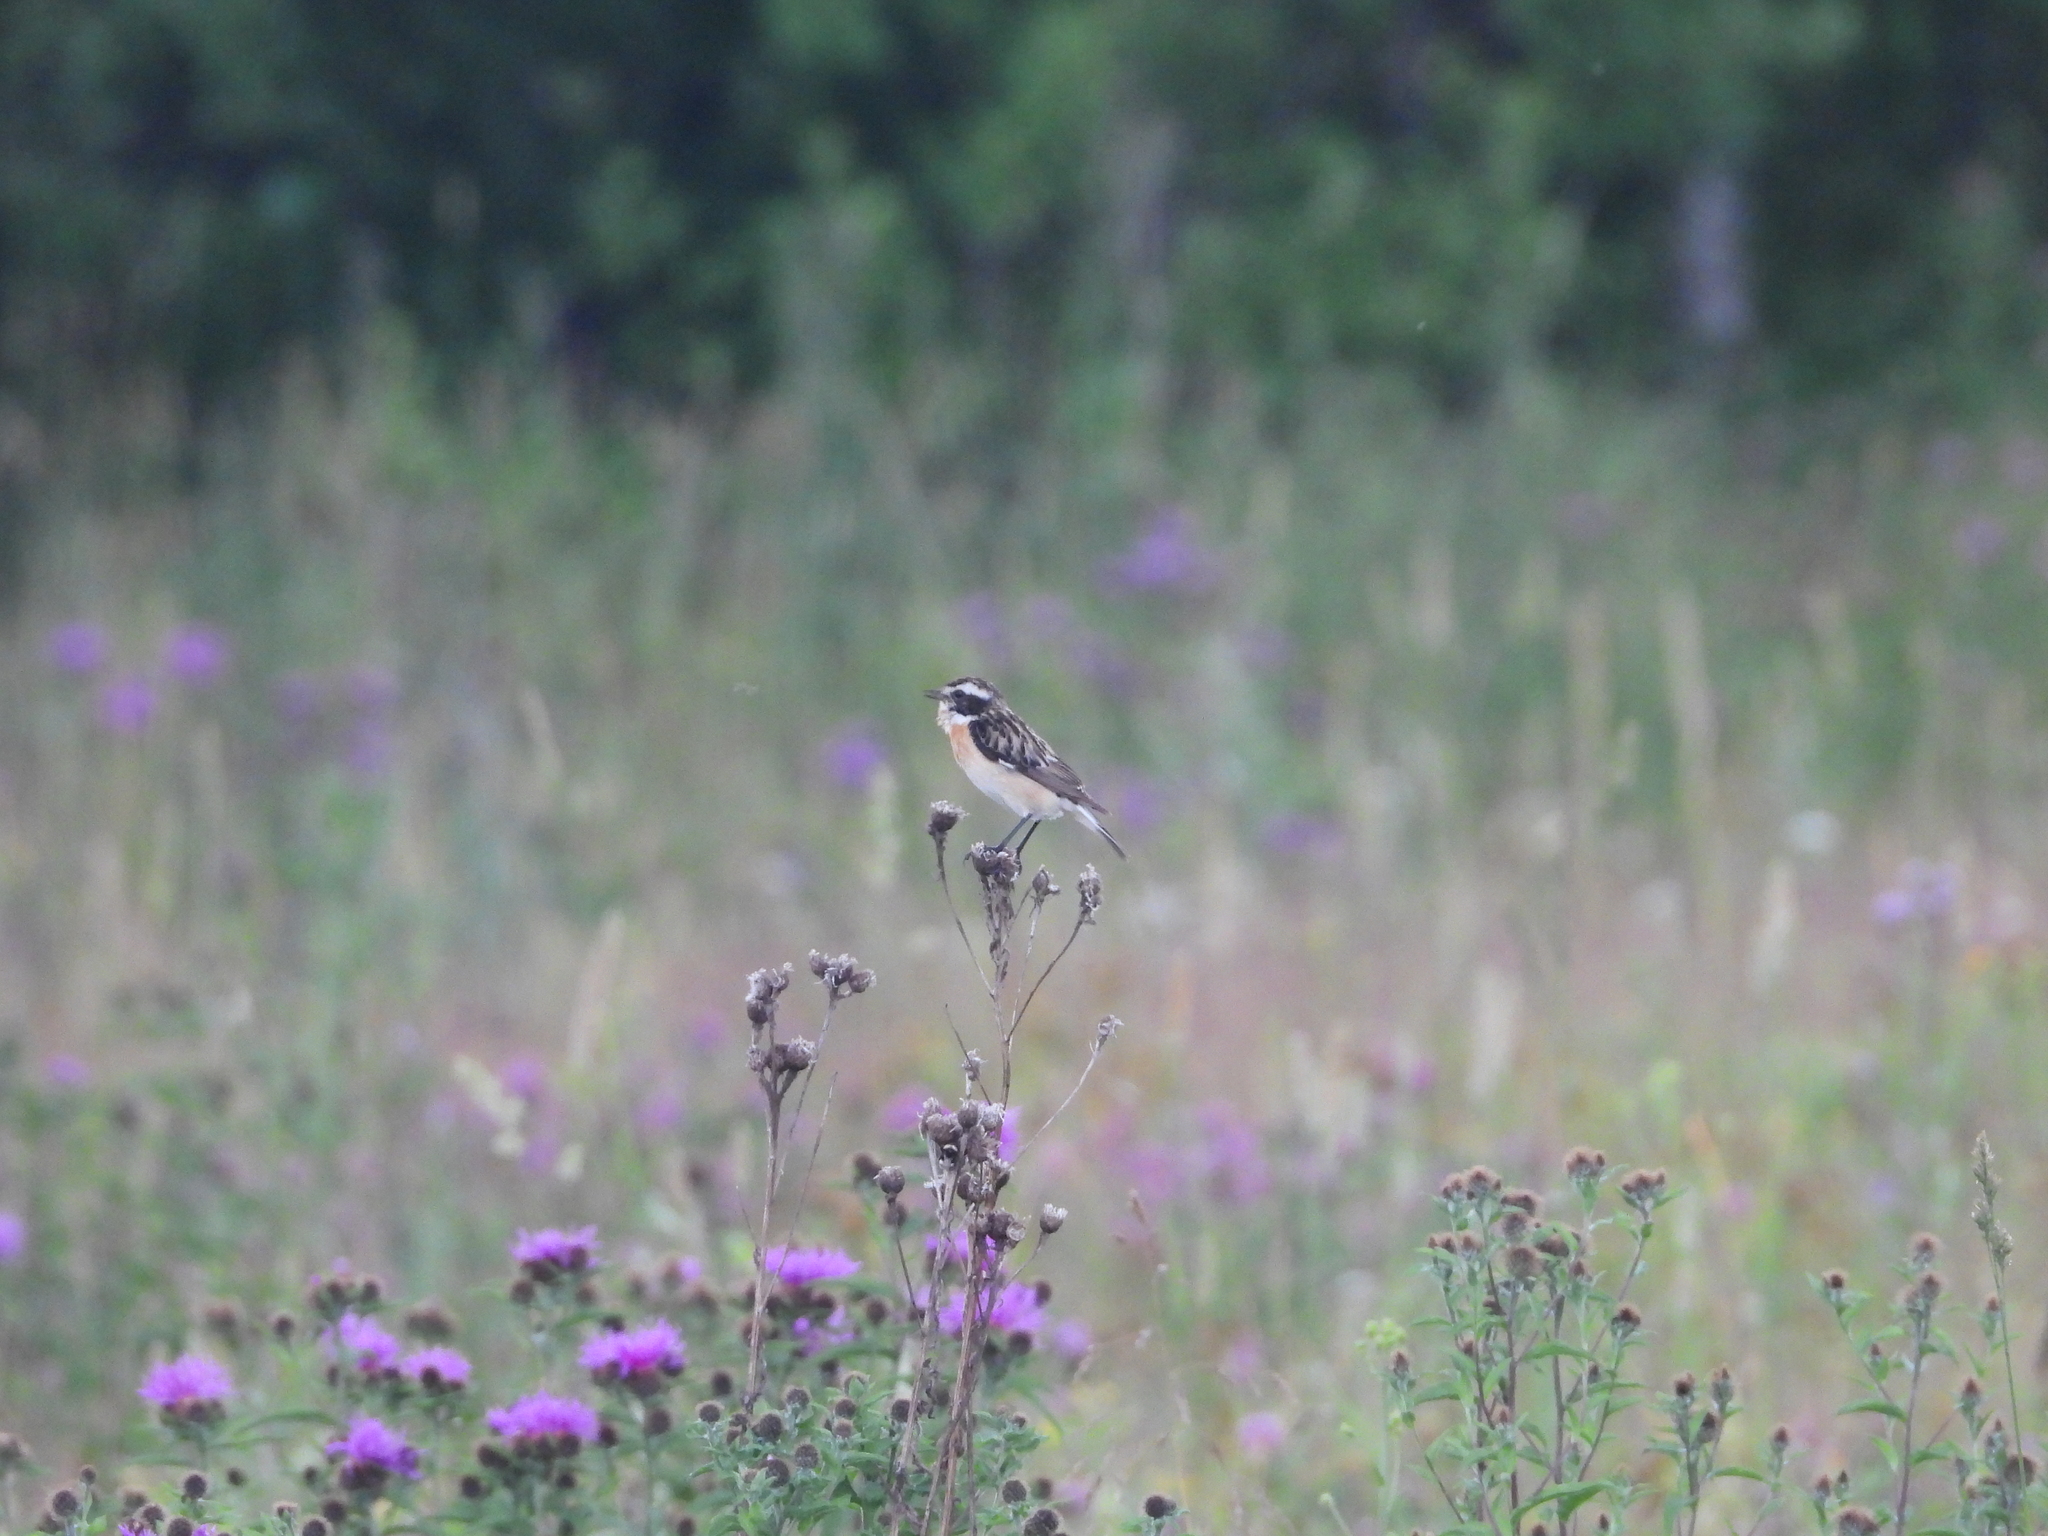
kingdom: Animalia
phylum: Chordata
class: Aves
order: Passeriformes
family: Muscicapidae
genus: Saxicola
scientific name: Saxicola rubetra
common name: Whinchat
